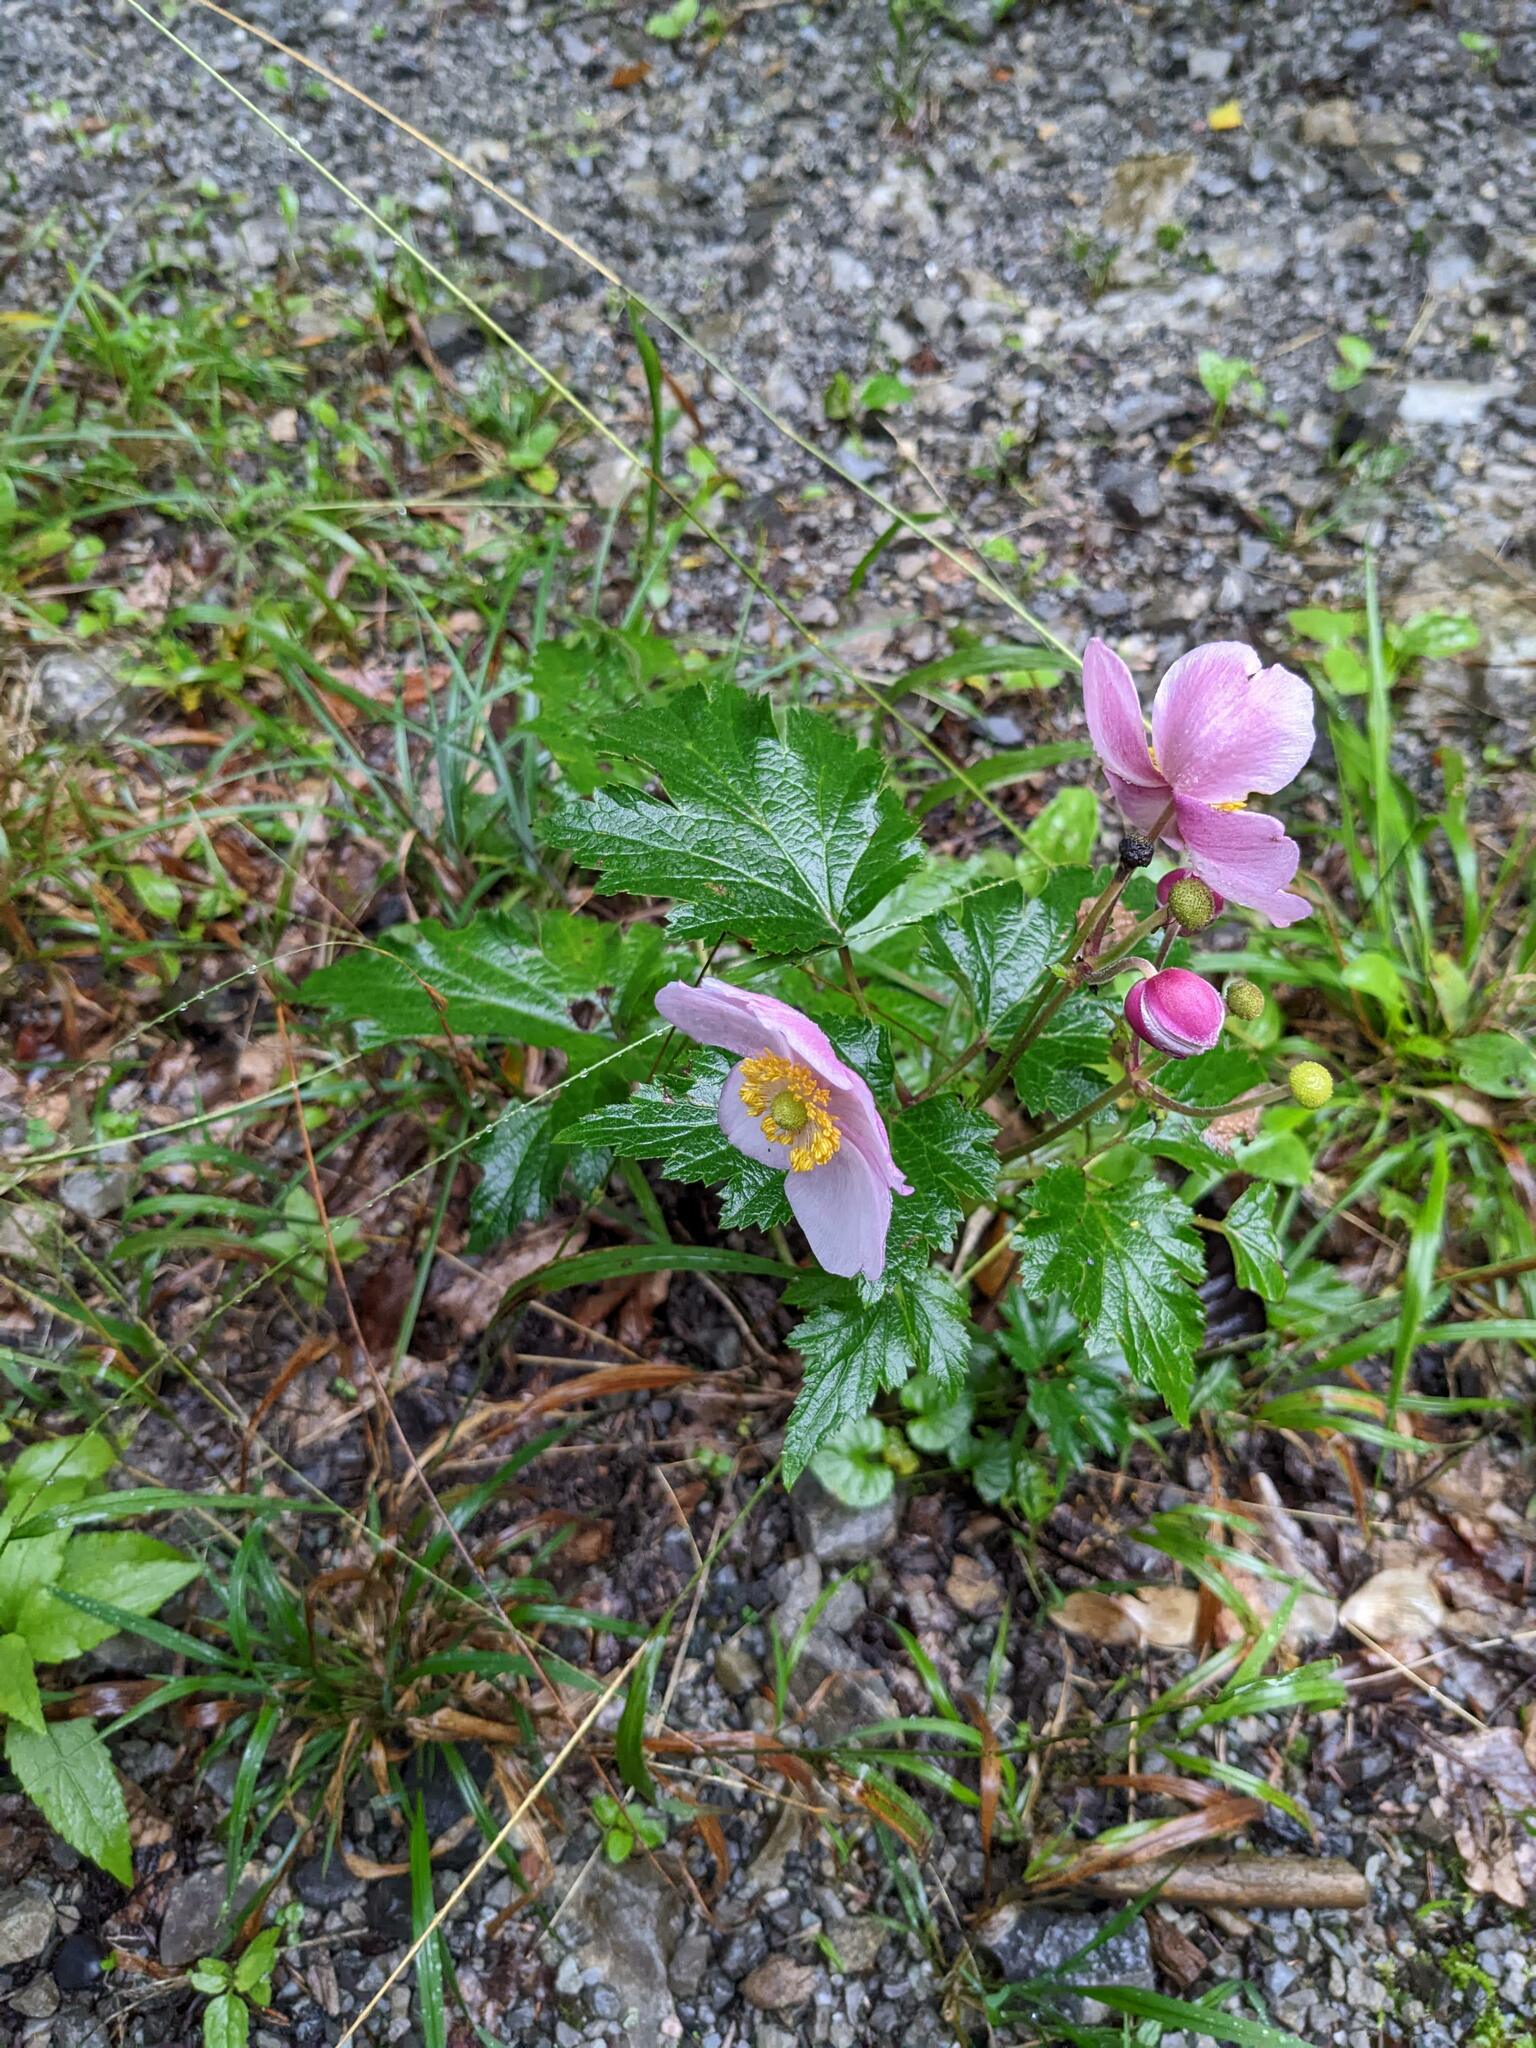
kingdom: Plantae
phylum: Tracheophyta
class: Magnoliopsida
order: Ranunculales
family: Ranunculaceae
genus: Eriocapitella
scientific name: Eriocapitella hupehensis
